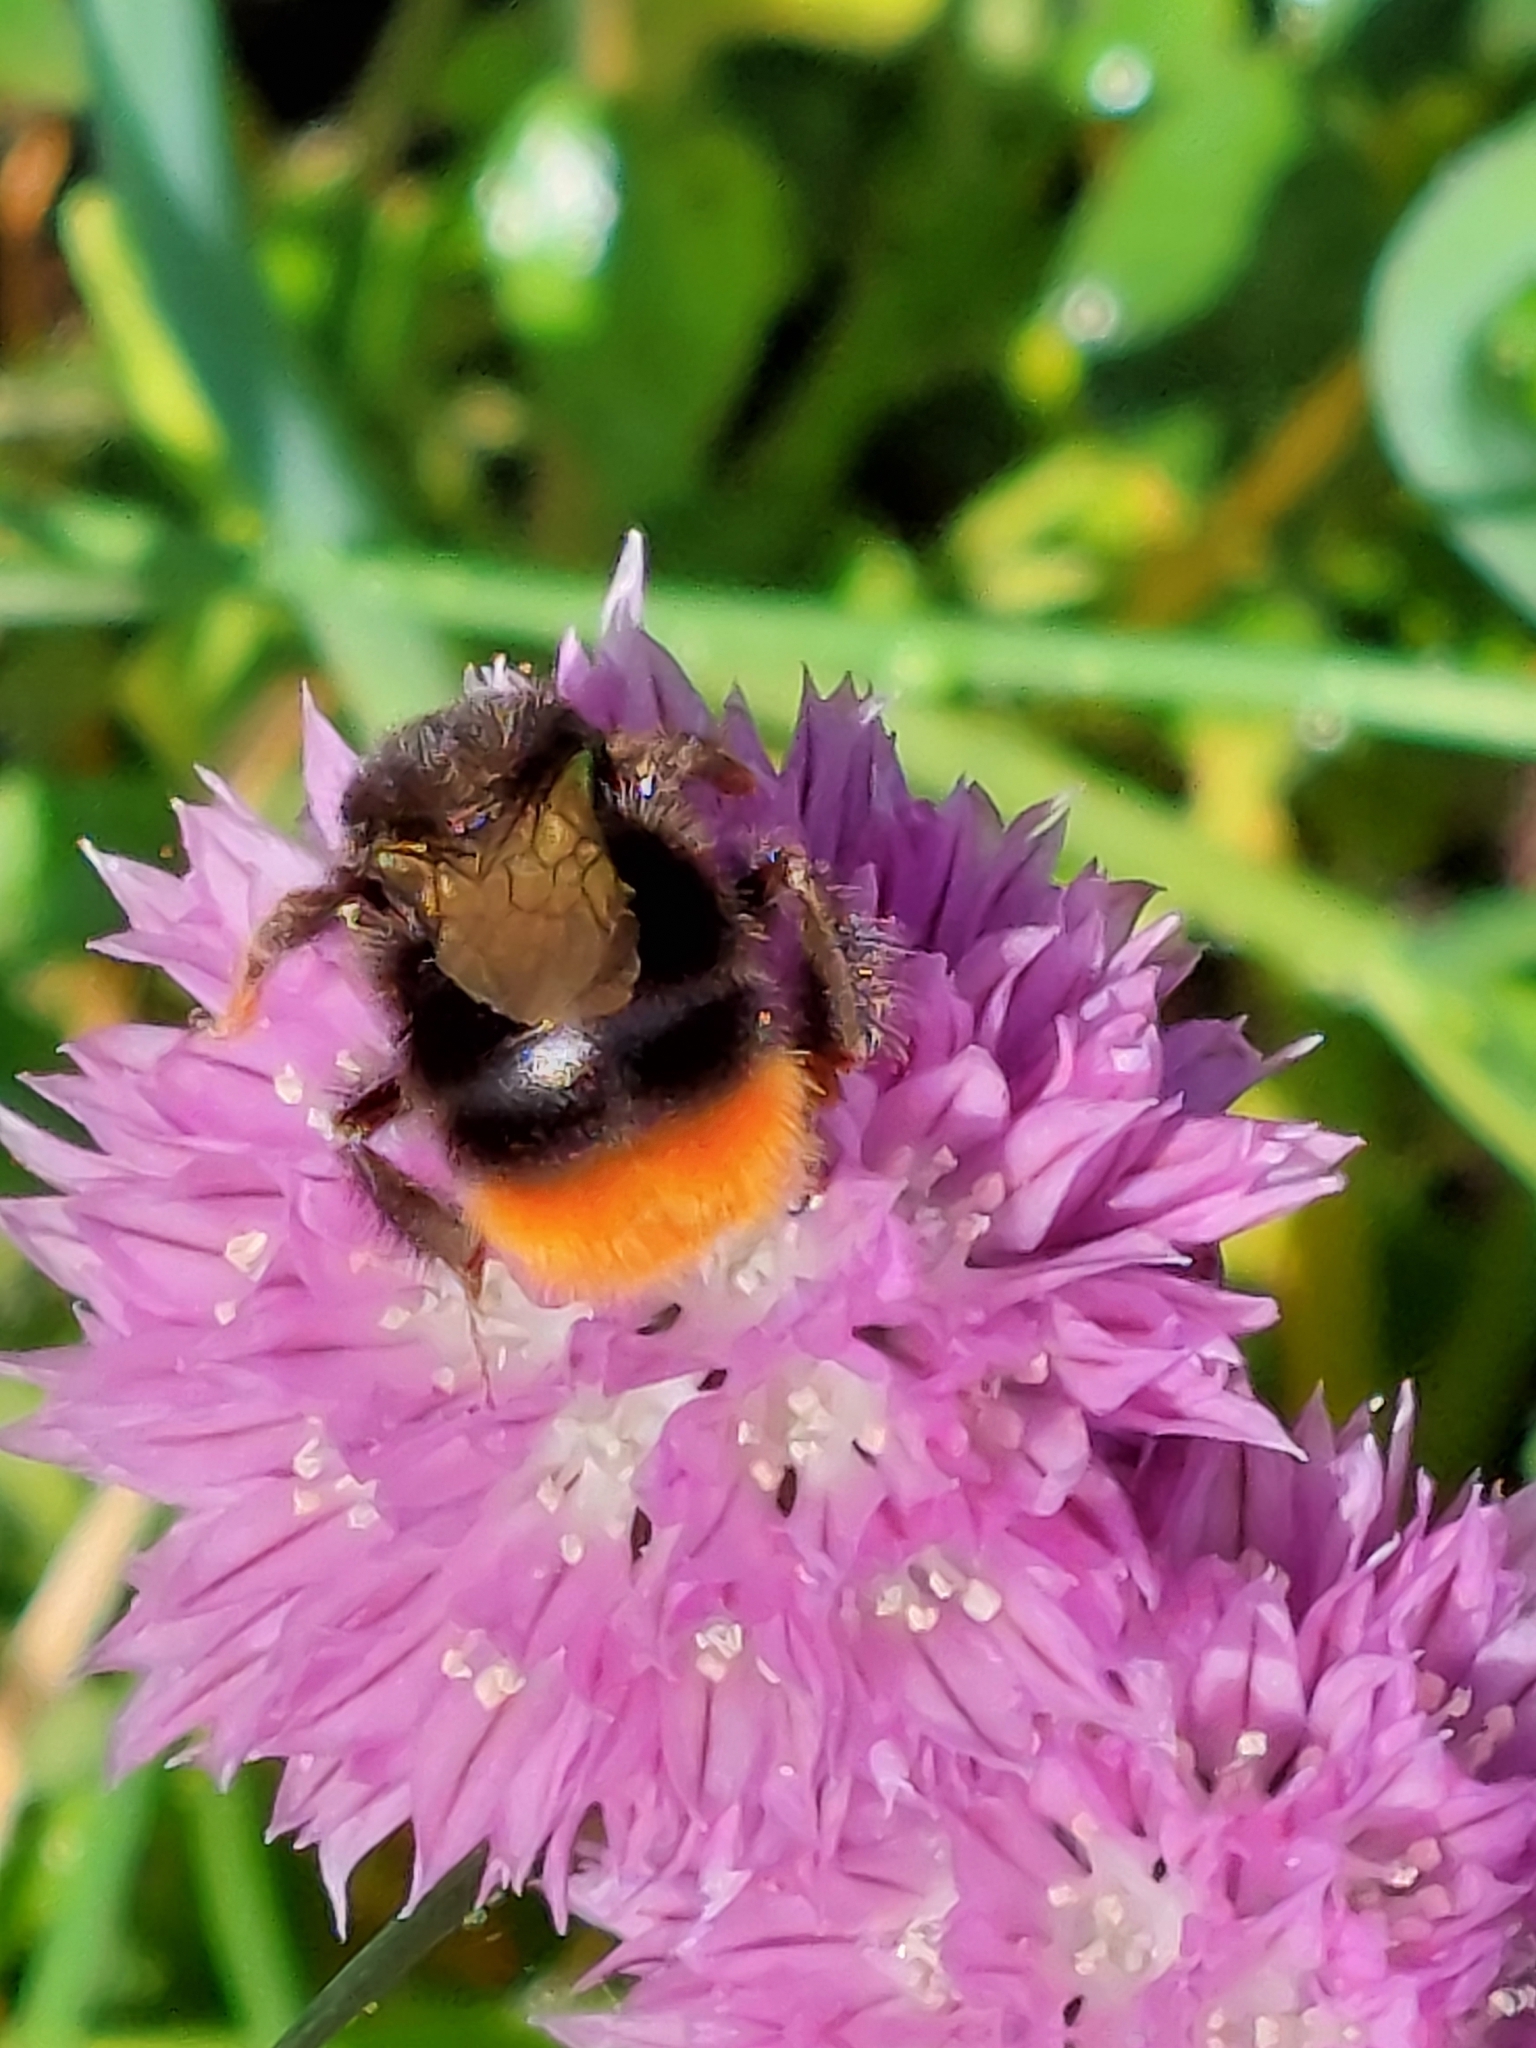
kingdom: Animalia
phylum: Arthropoda
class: Insecta
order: Hymenoptera
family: Apidae
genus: Bombus
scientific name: Bombus lapidarius
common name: Large red-tailed humble-bee
